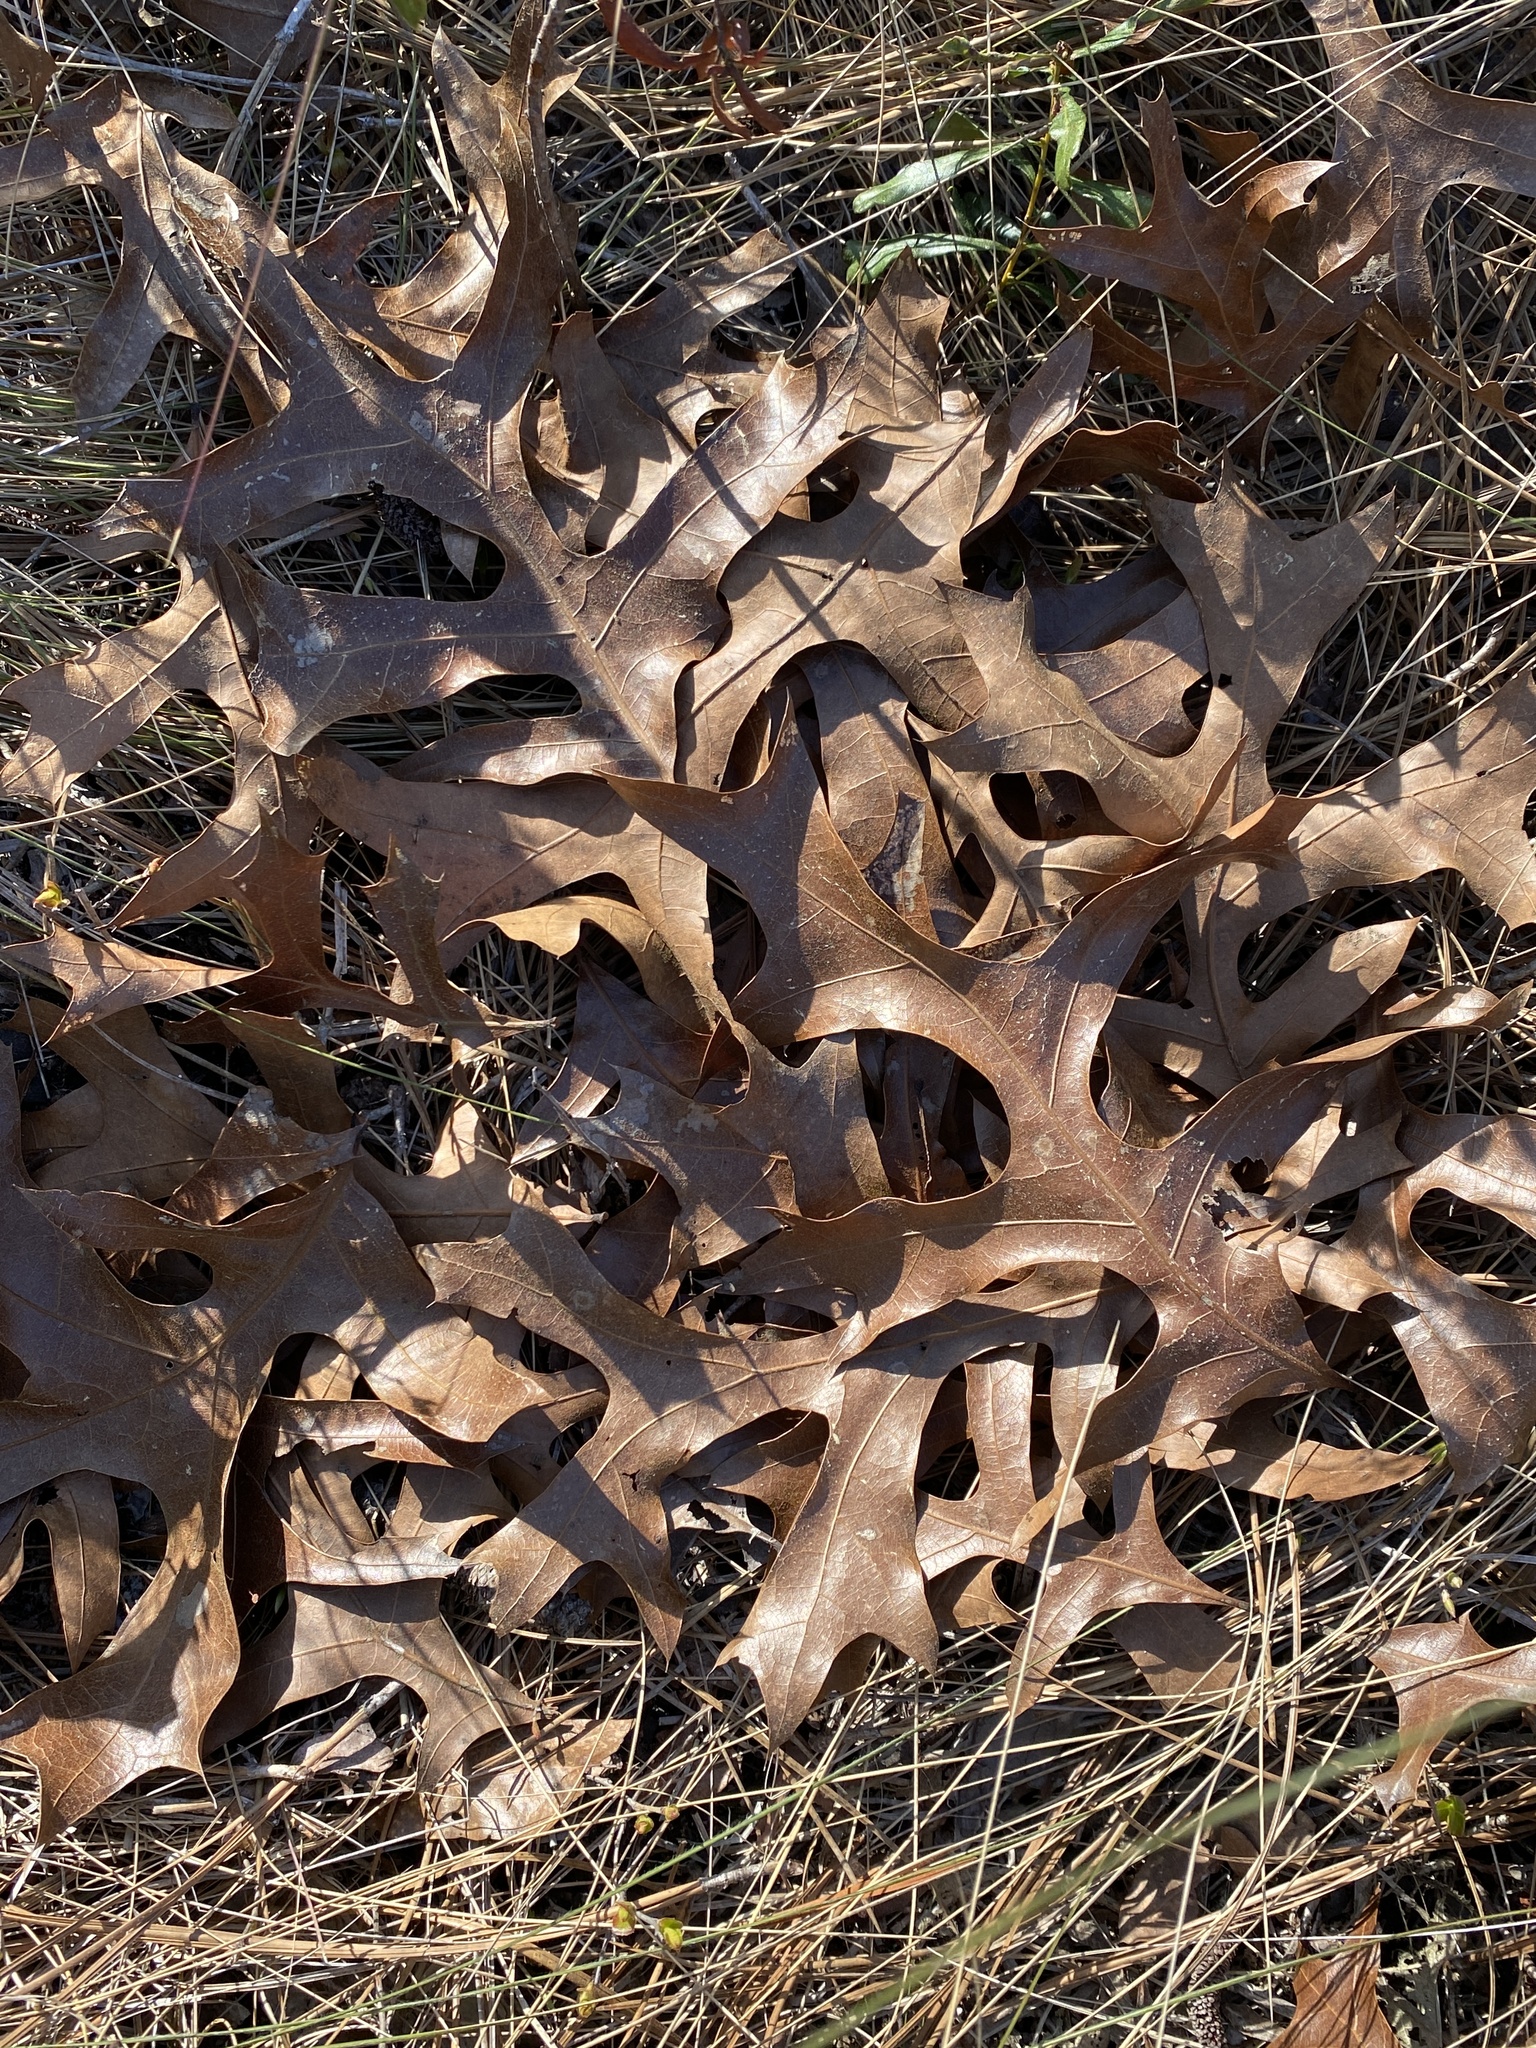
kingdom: Plantae
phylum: Tracheophyta
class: Magnoliopsida
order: Fagales
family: Fagaceae
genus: Quercus
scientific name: Quercus laevis
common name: Turkey oak
